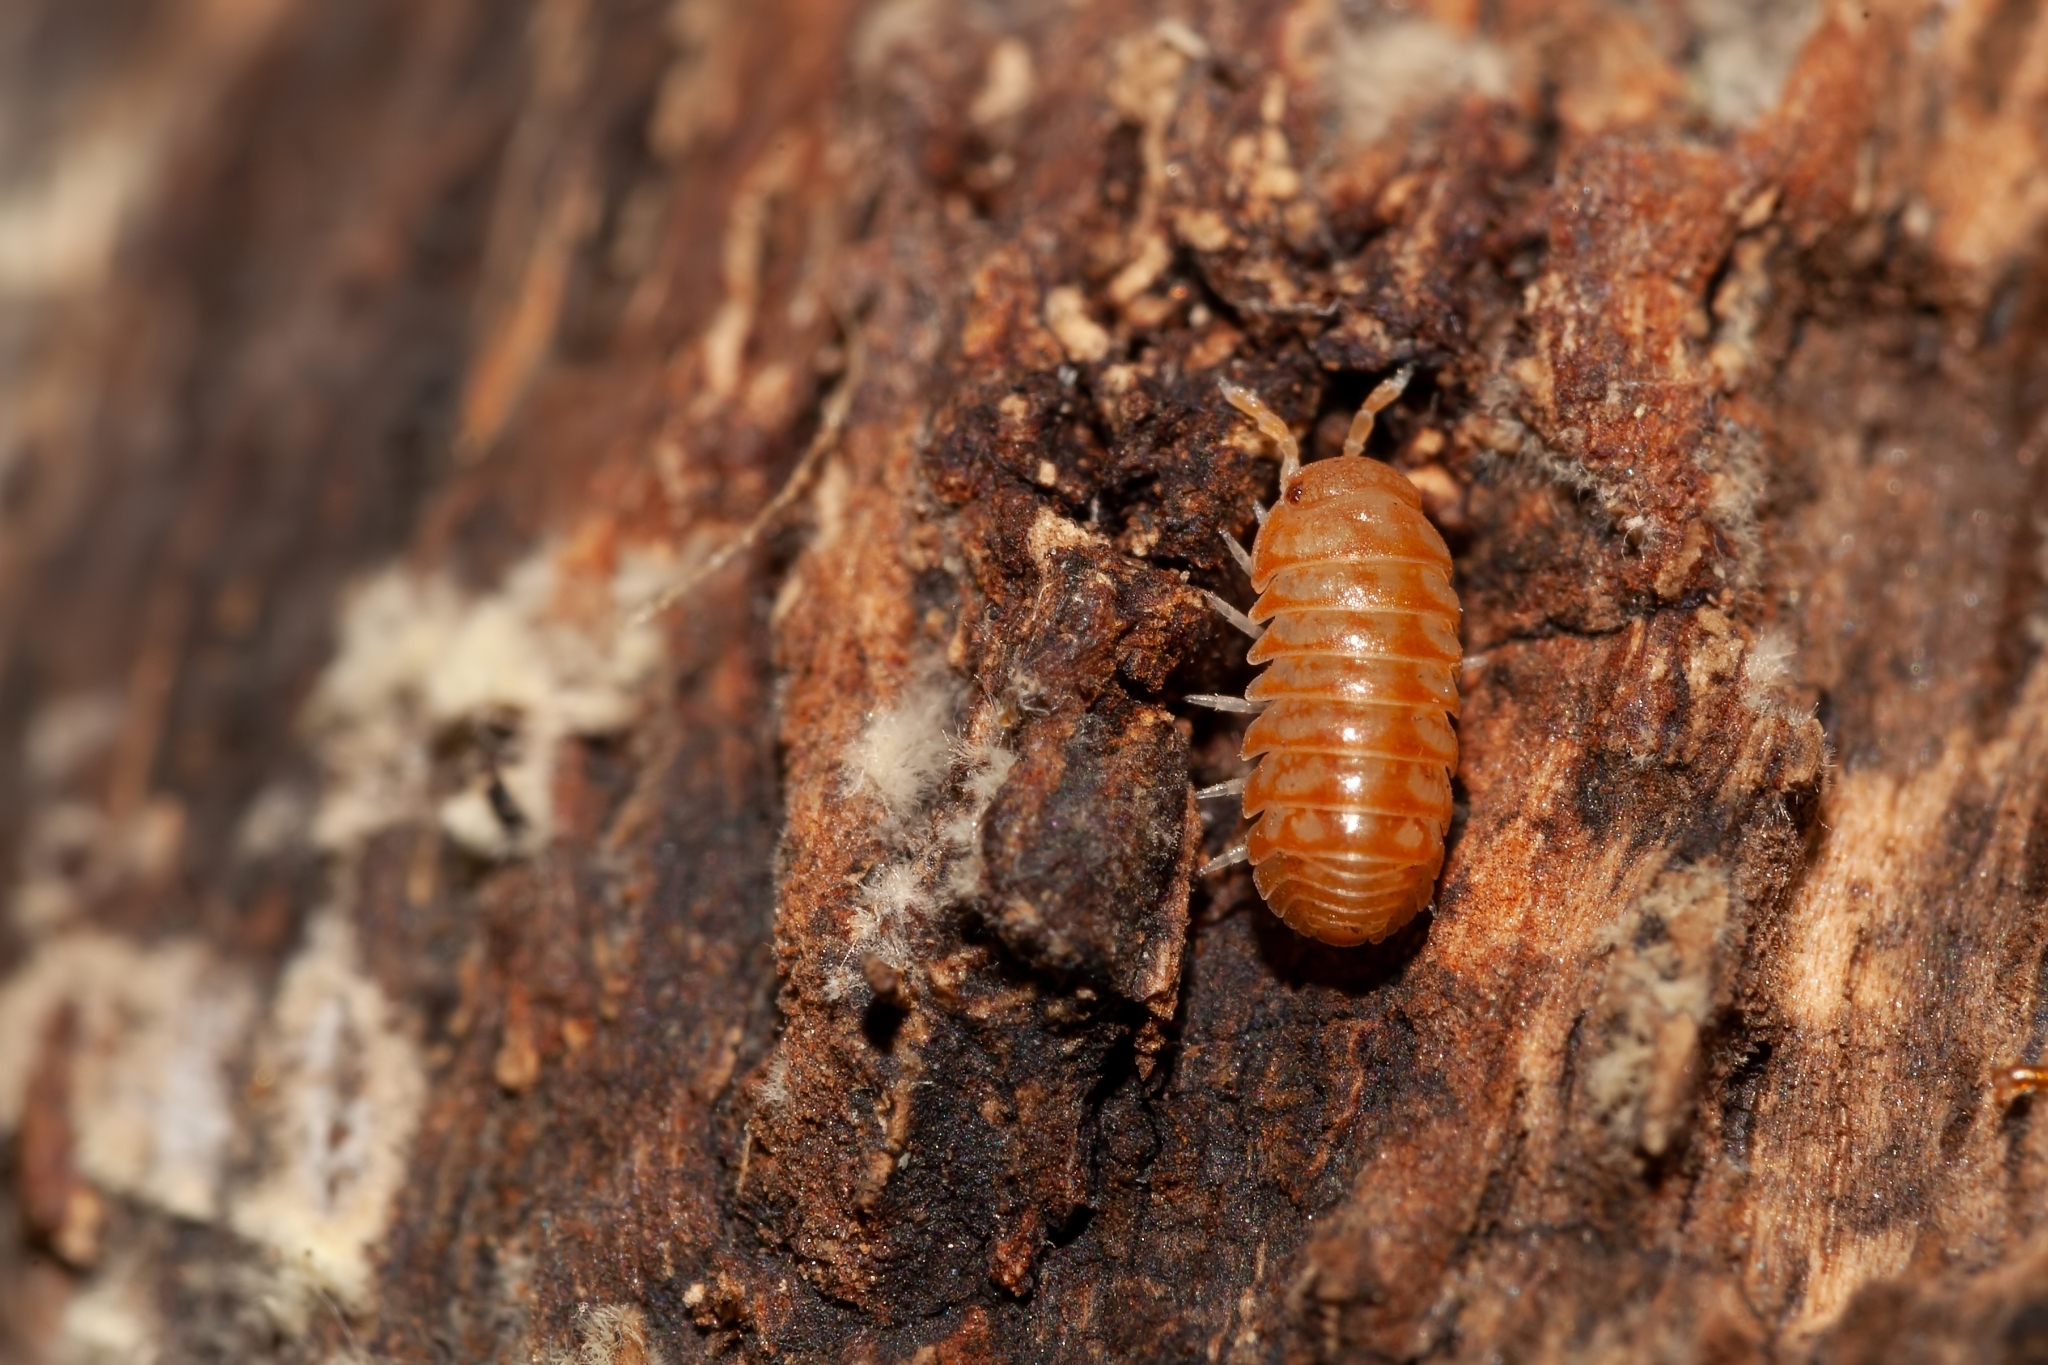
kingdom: Animalia
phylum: Arthropoda
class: Malacostraca
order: Isopoda
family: Armadillidae
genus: Venezillo
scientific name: Venezillo parvus
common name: Pillbug
